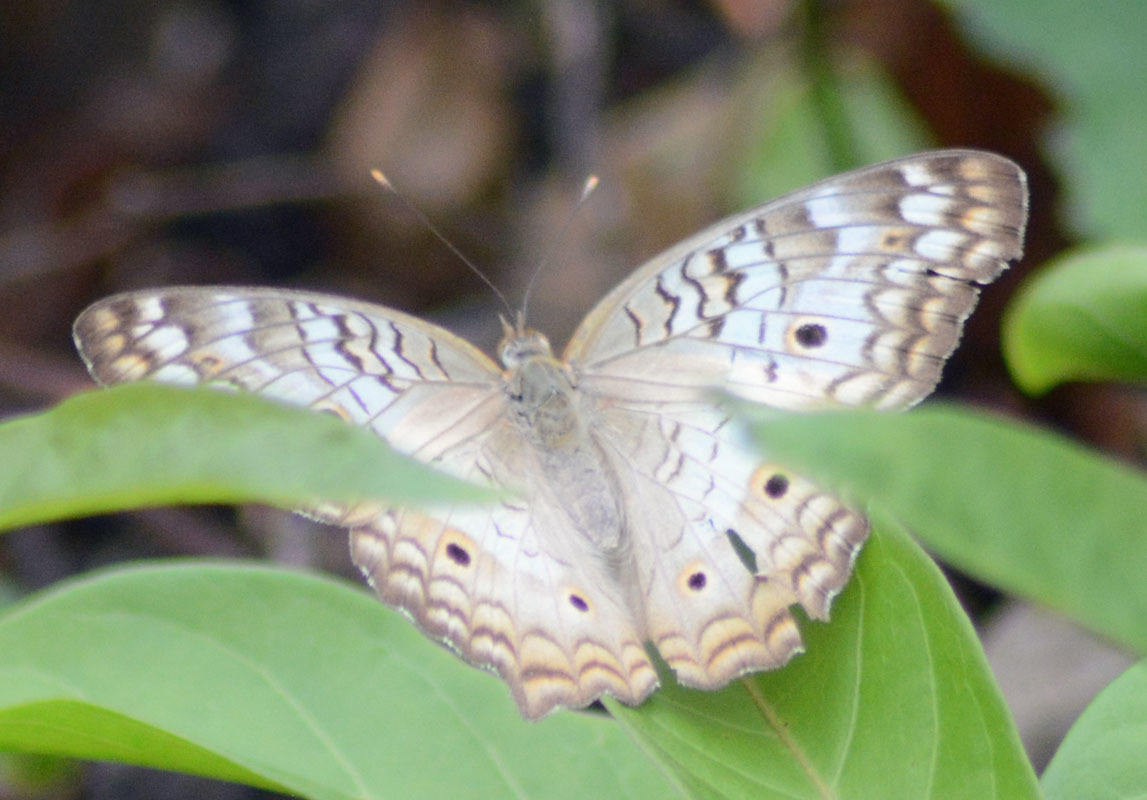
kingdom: Animalia
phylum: Arthropoda
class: Insecta
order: Lepidoptera
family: Nymphalidae
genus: Anartia
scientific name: Anartia jatrophae
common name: White peacock
